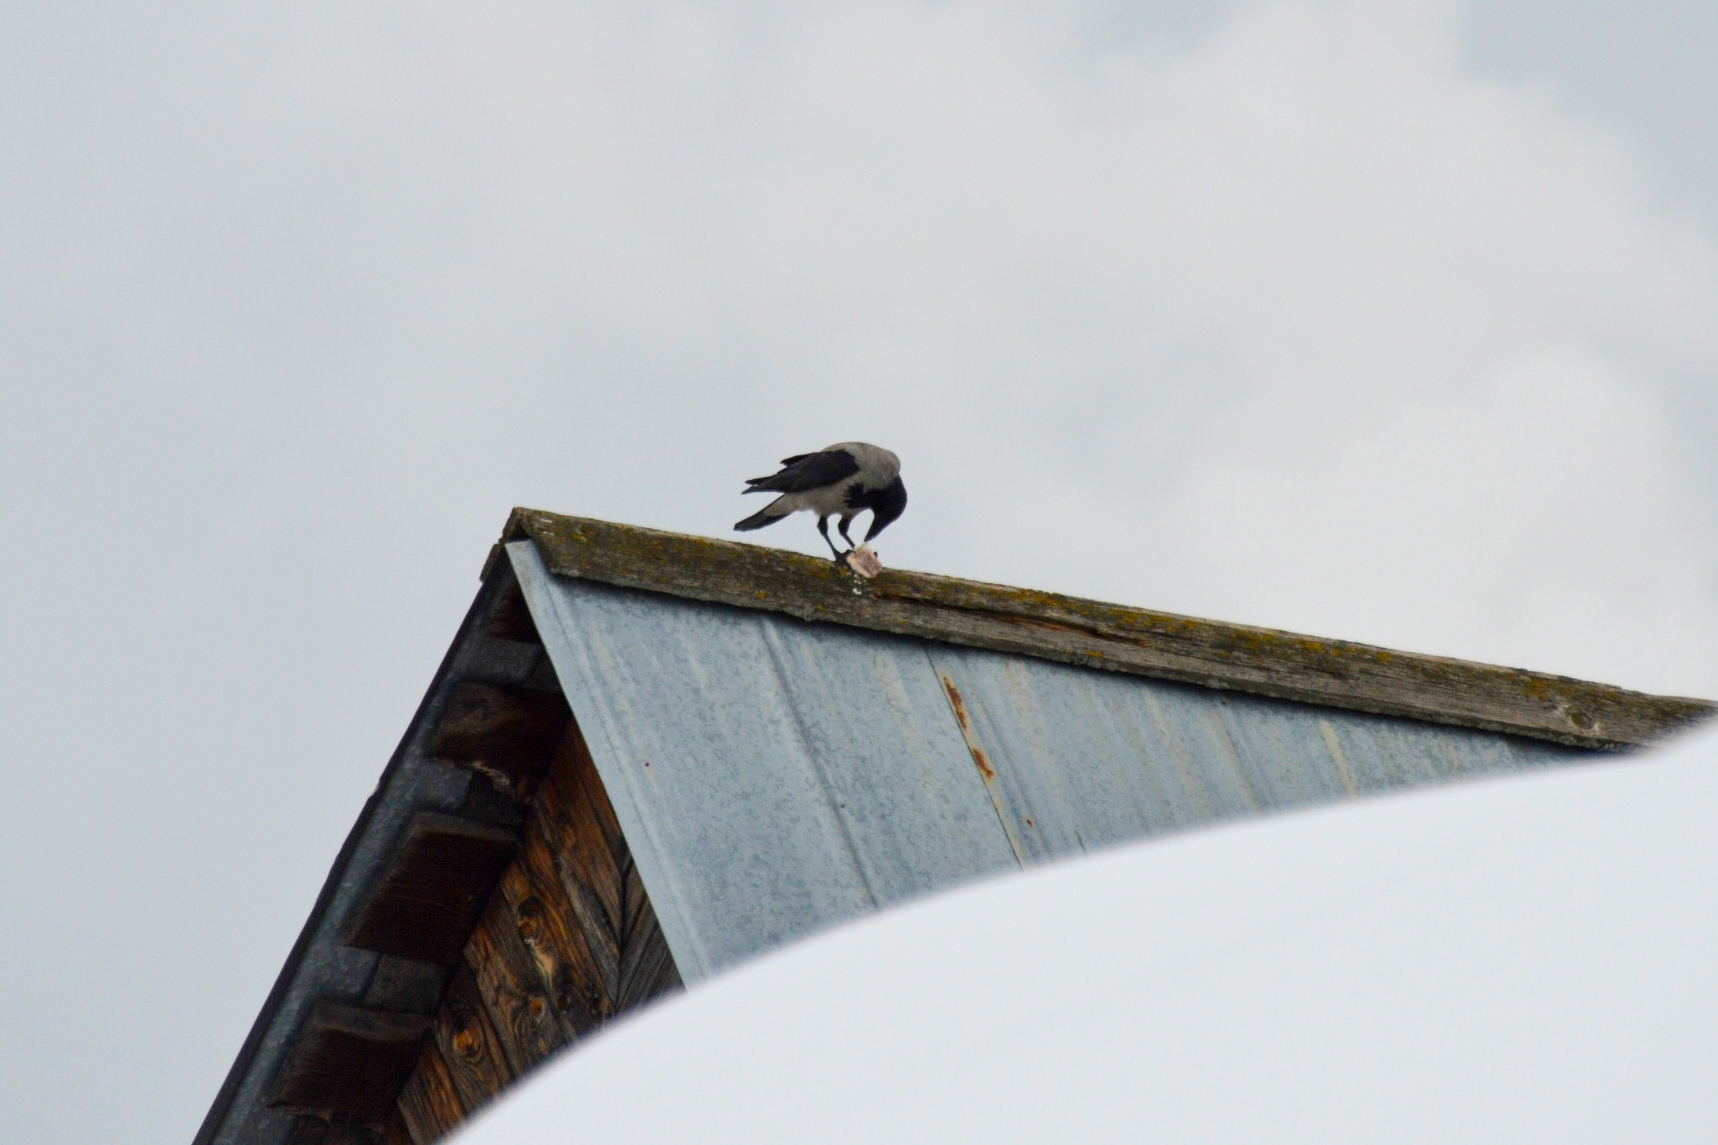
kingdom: Animalia
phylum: Chordata
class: Aves
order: Passeriformes
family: Corvidae
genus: Corvus
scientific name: Corvus cornix
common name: Hooded crow
